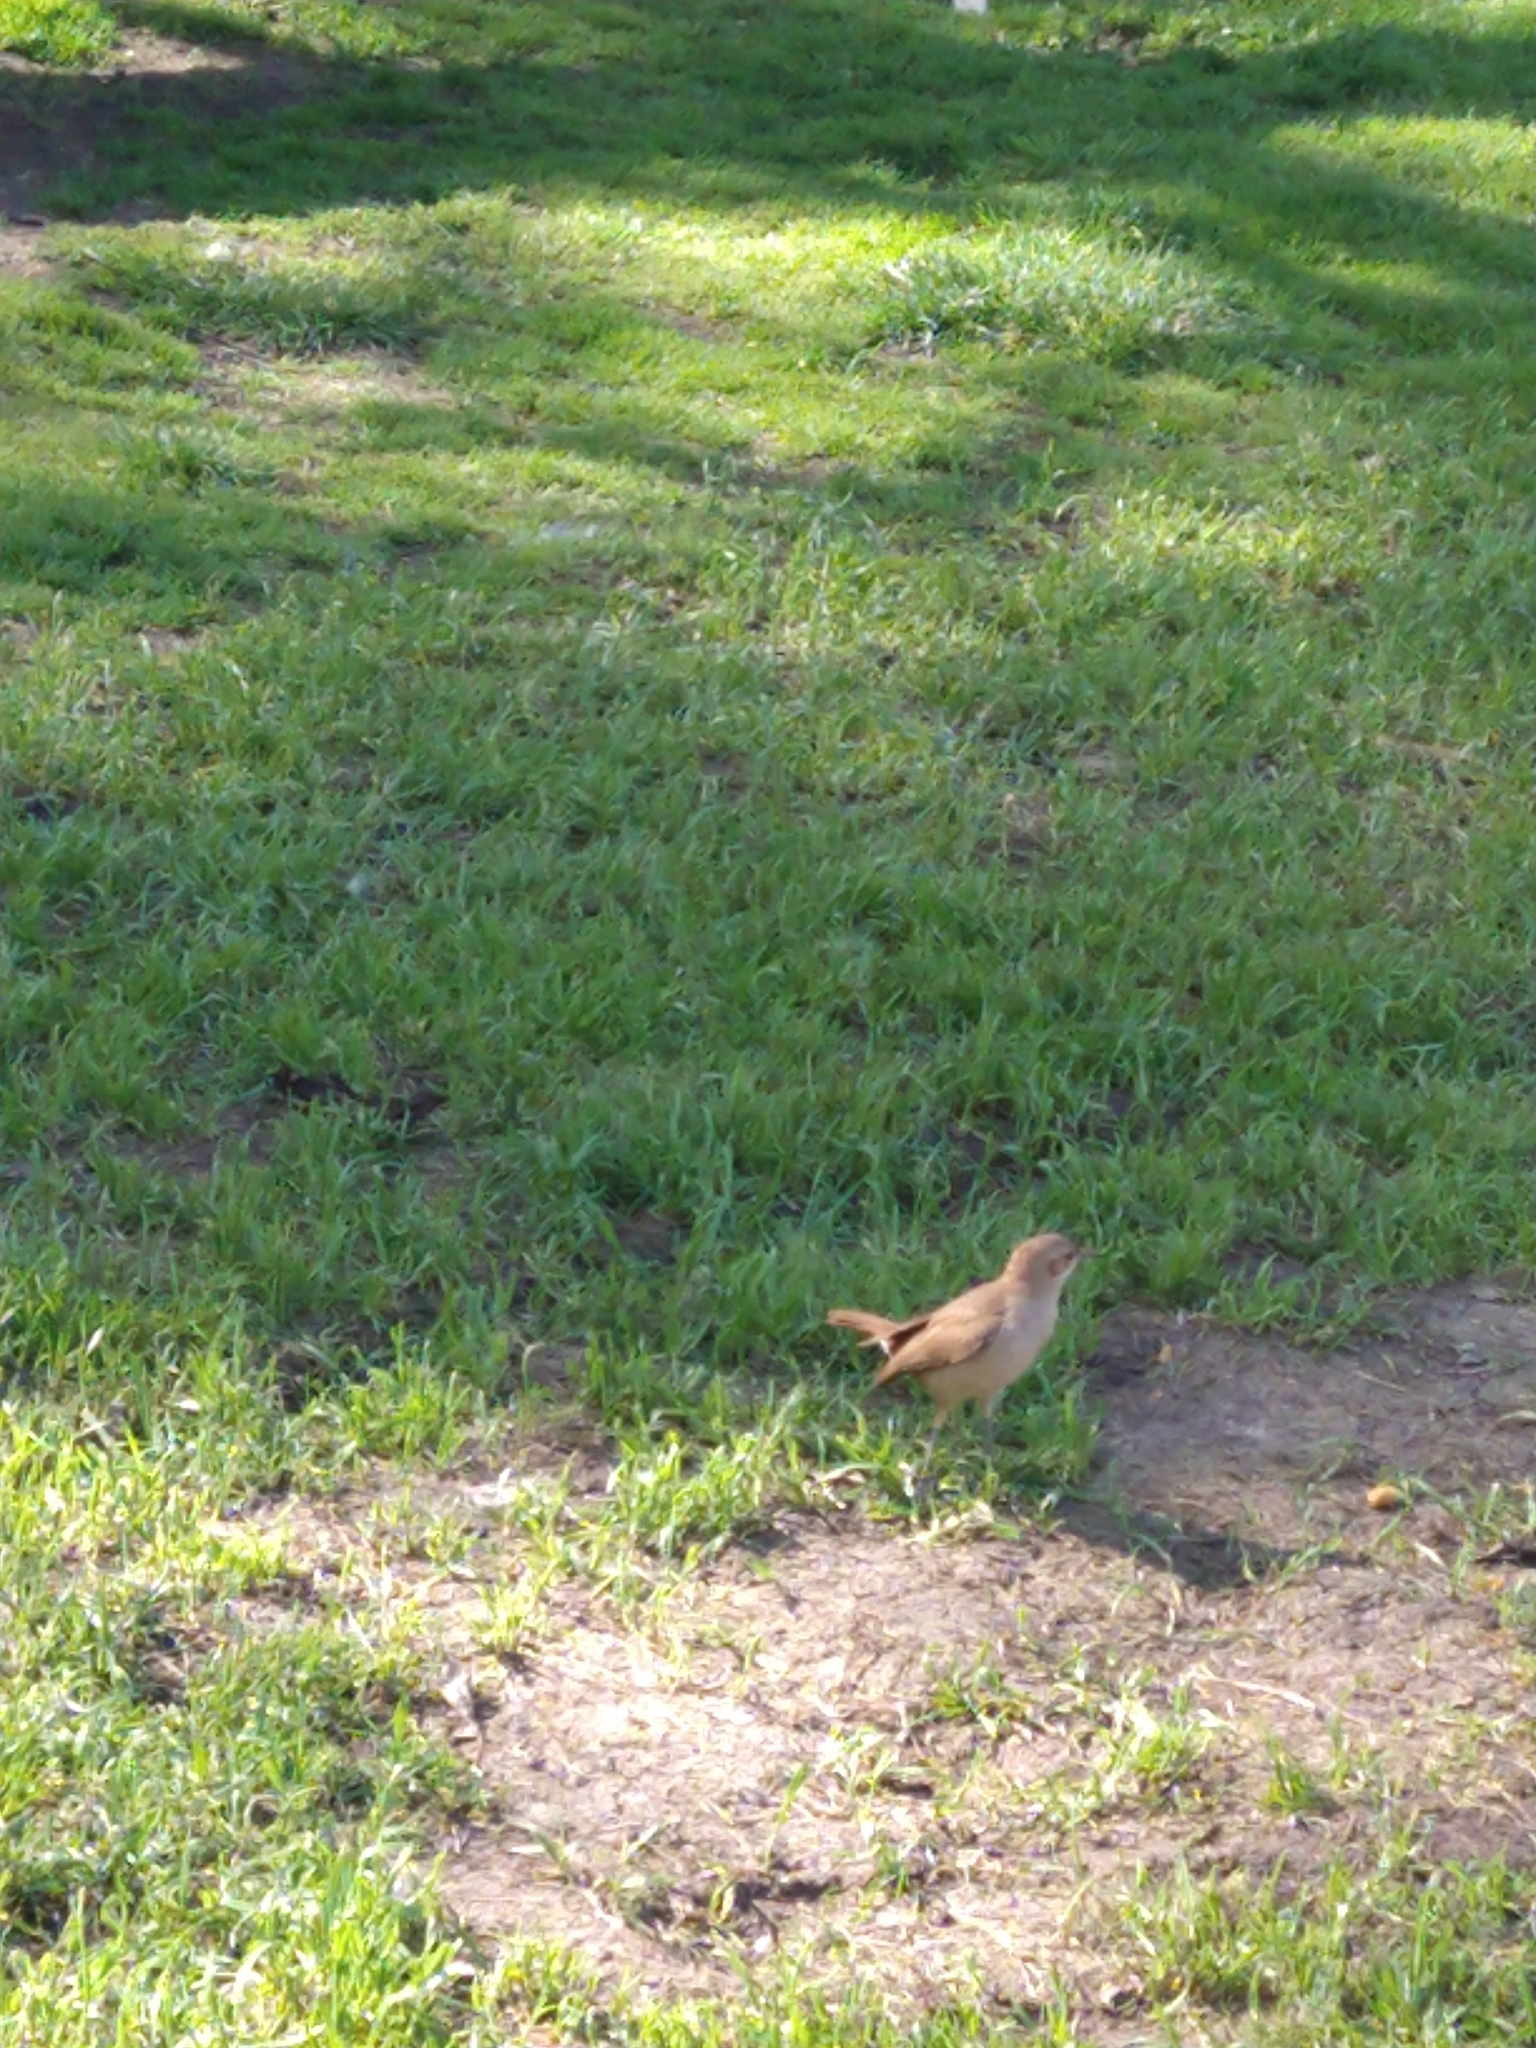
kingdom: Animalia
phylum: Chordata
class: Aves
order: Passeriformes
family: Furnariidae
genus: Furnarius
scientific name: Furnarius rufus
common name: Rufous hornero
